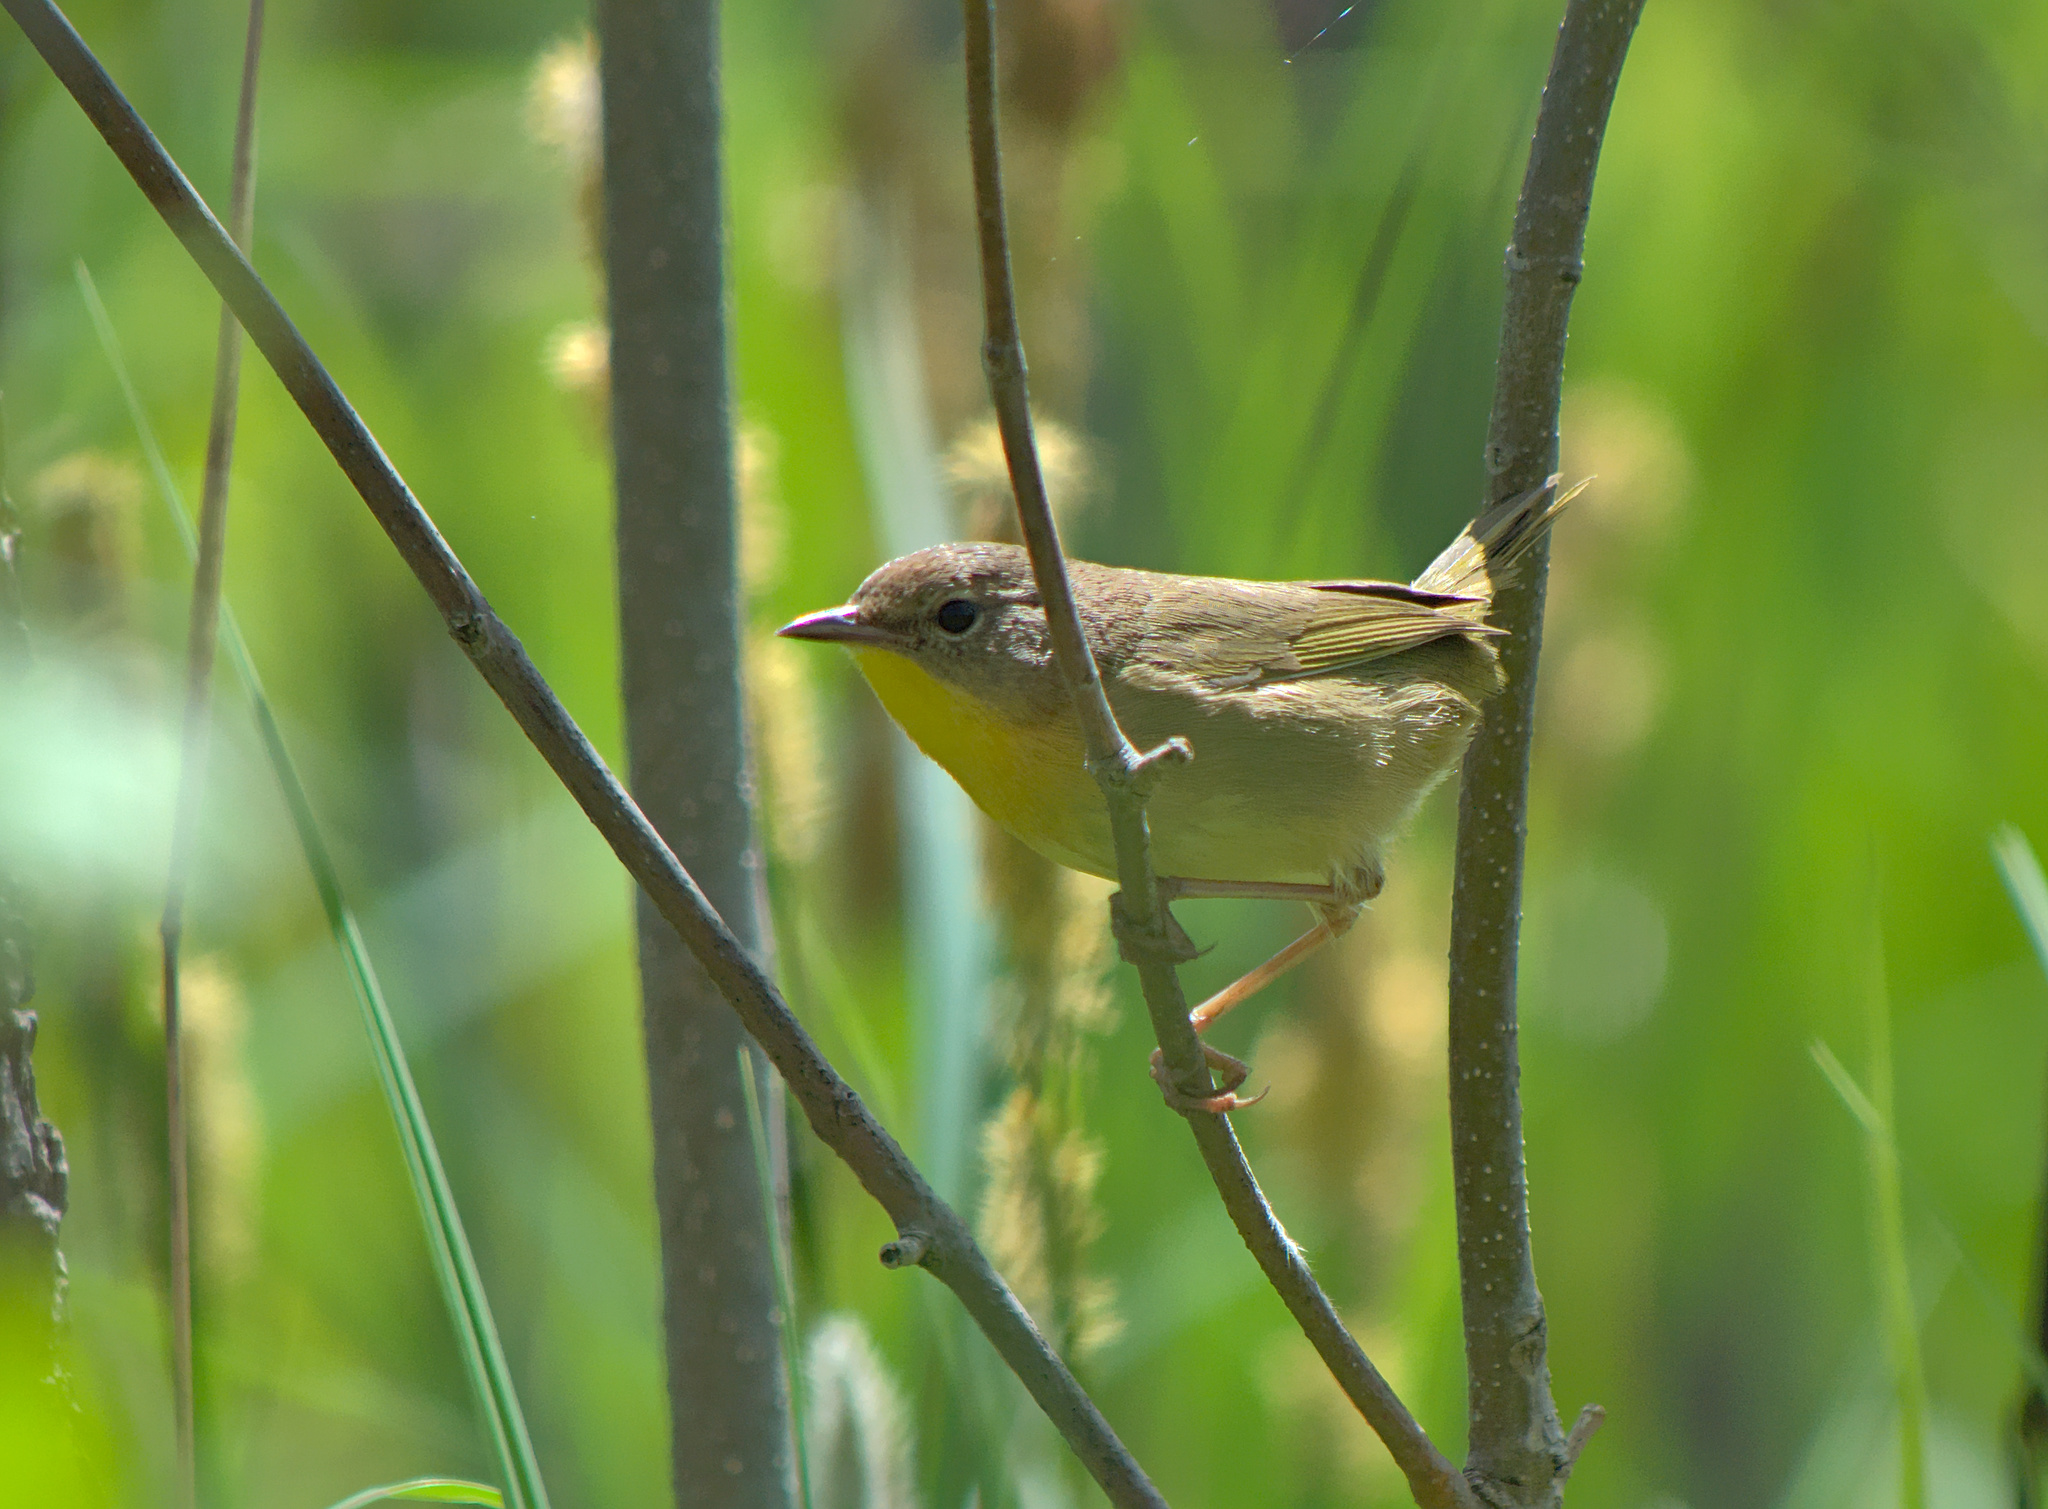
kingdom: Animalia
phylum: Chordata
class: Aves
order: Passeriformes
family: Parulidae
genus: Geothlypis
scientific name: Geothlypis trichas
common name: Common yellowthroat
